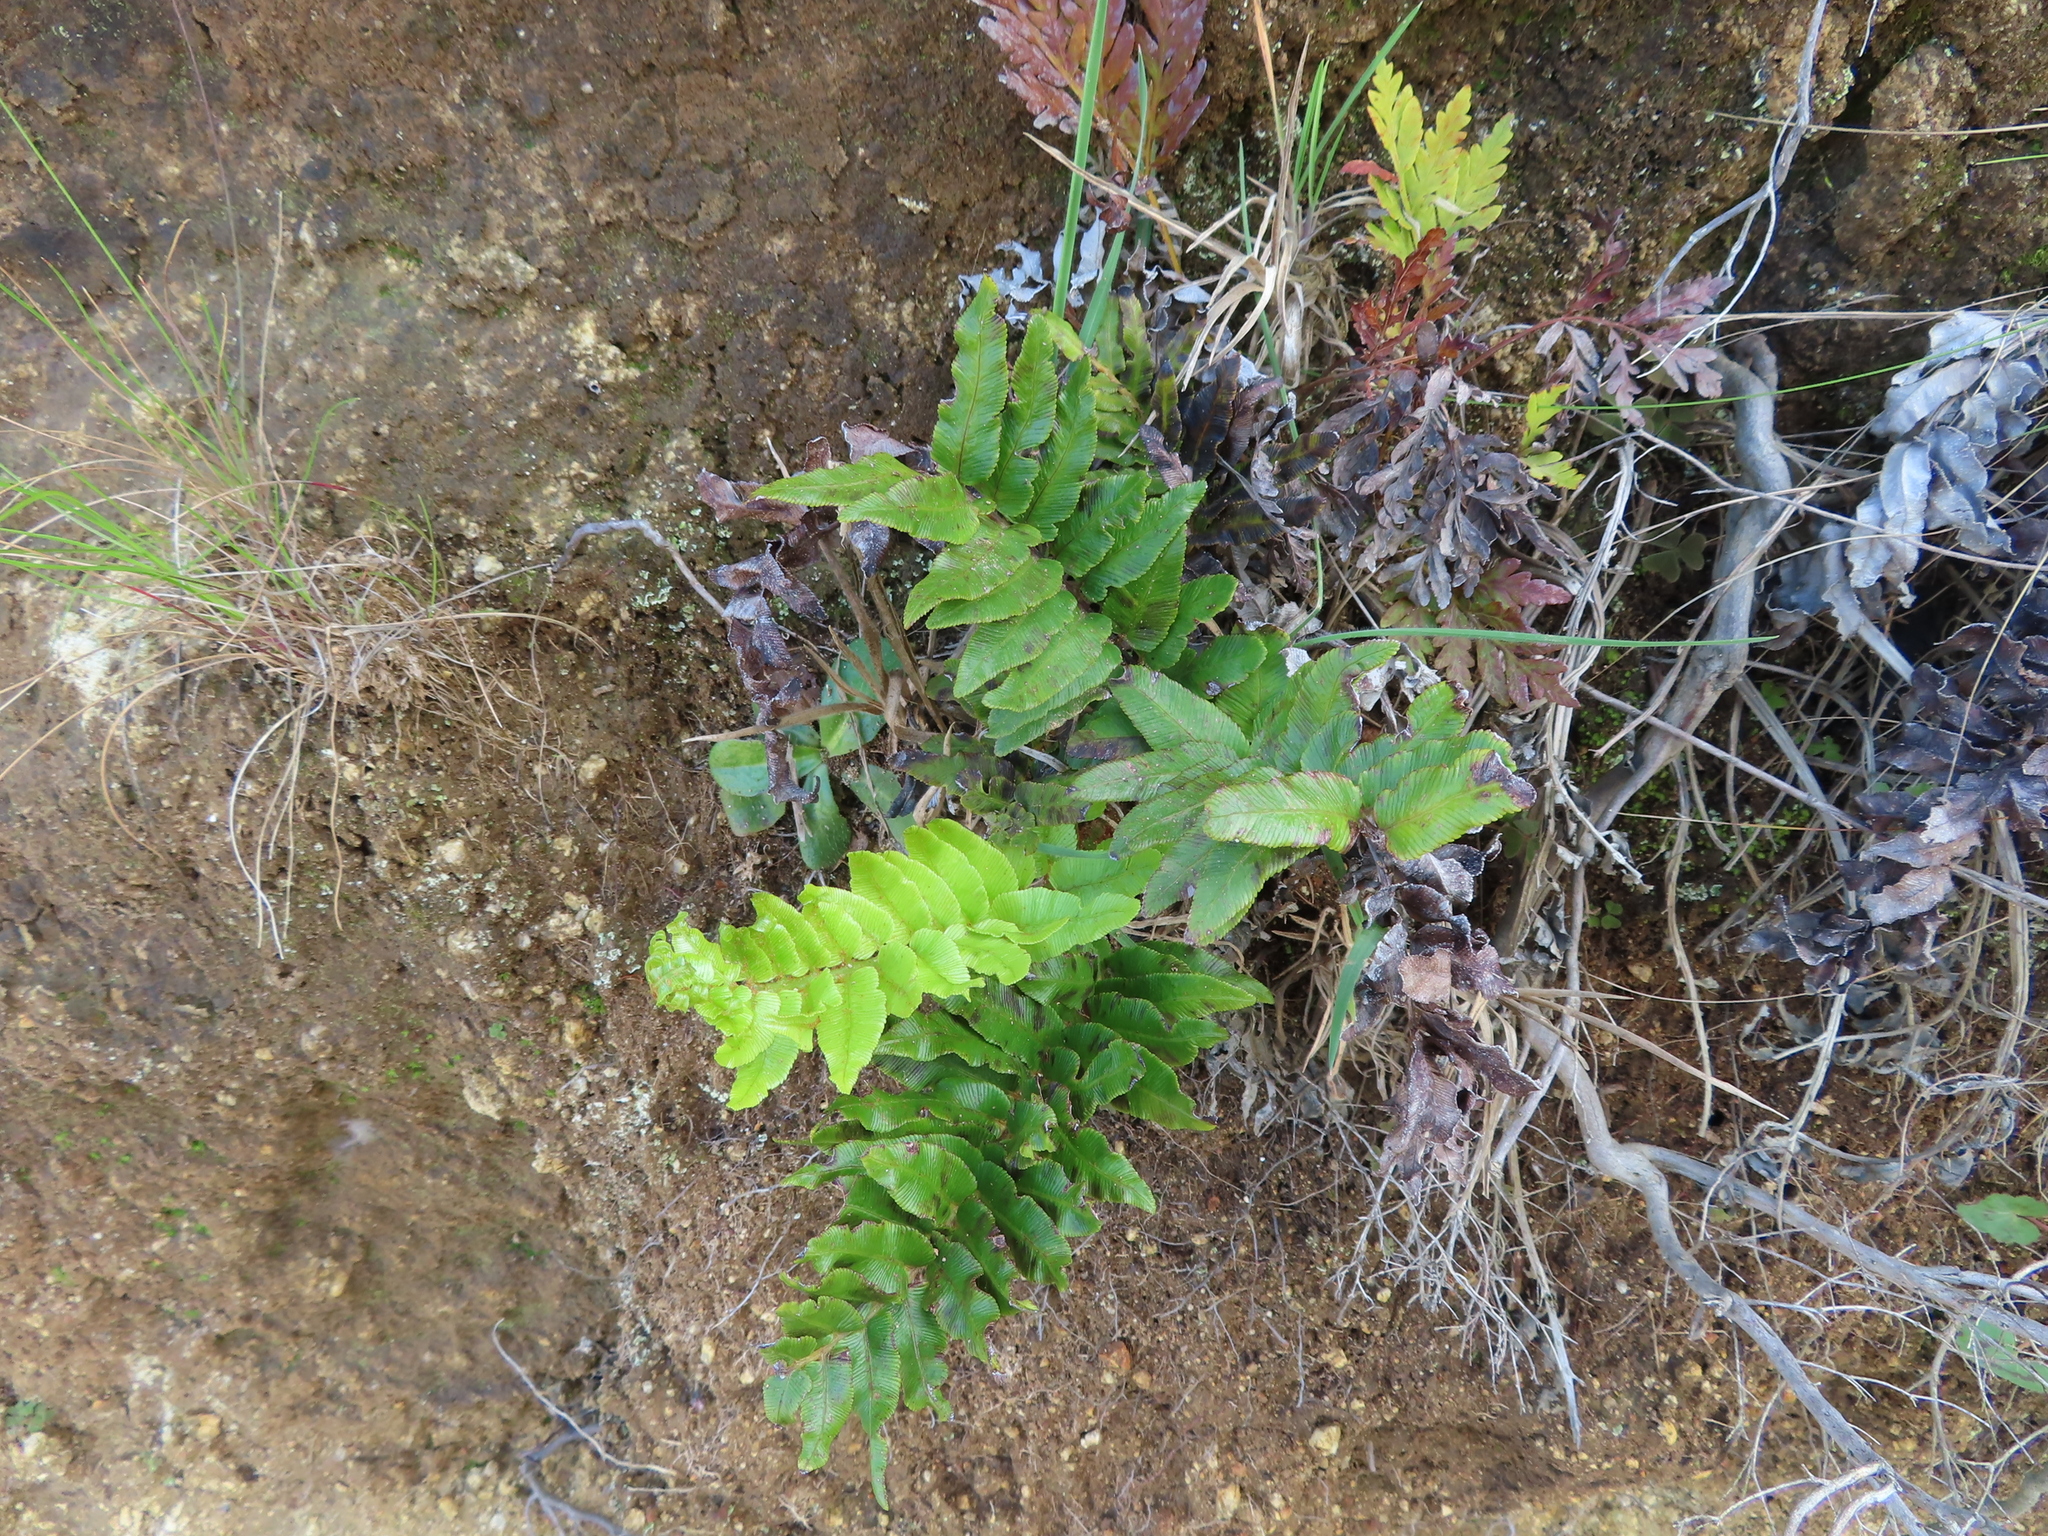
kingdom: Plantae
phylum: Tracheophyta
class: Polypodiopsida
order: Polypodiales
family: Blechnaceae
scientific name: Blechnaceae
